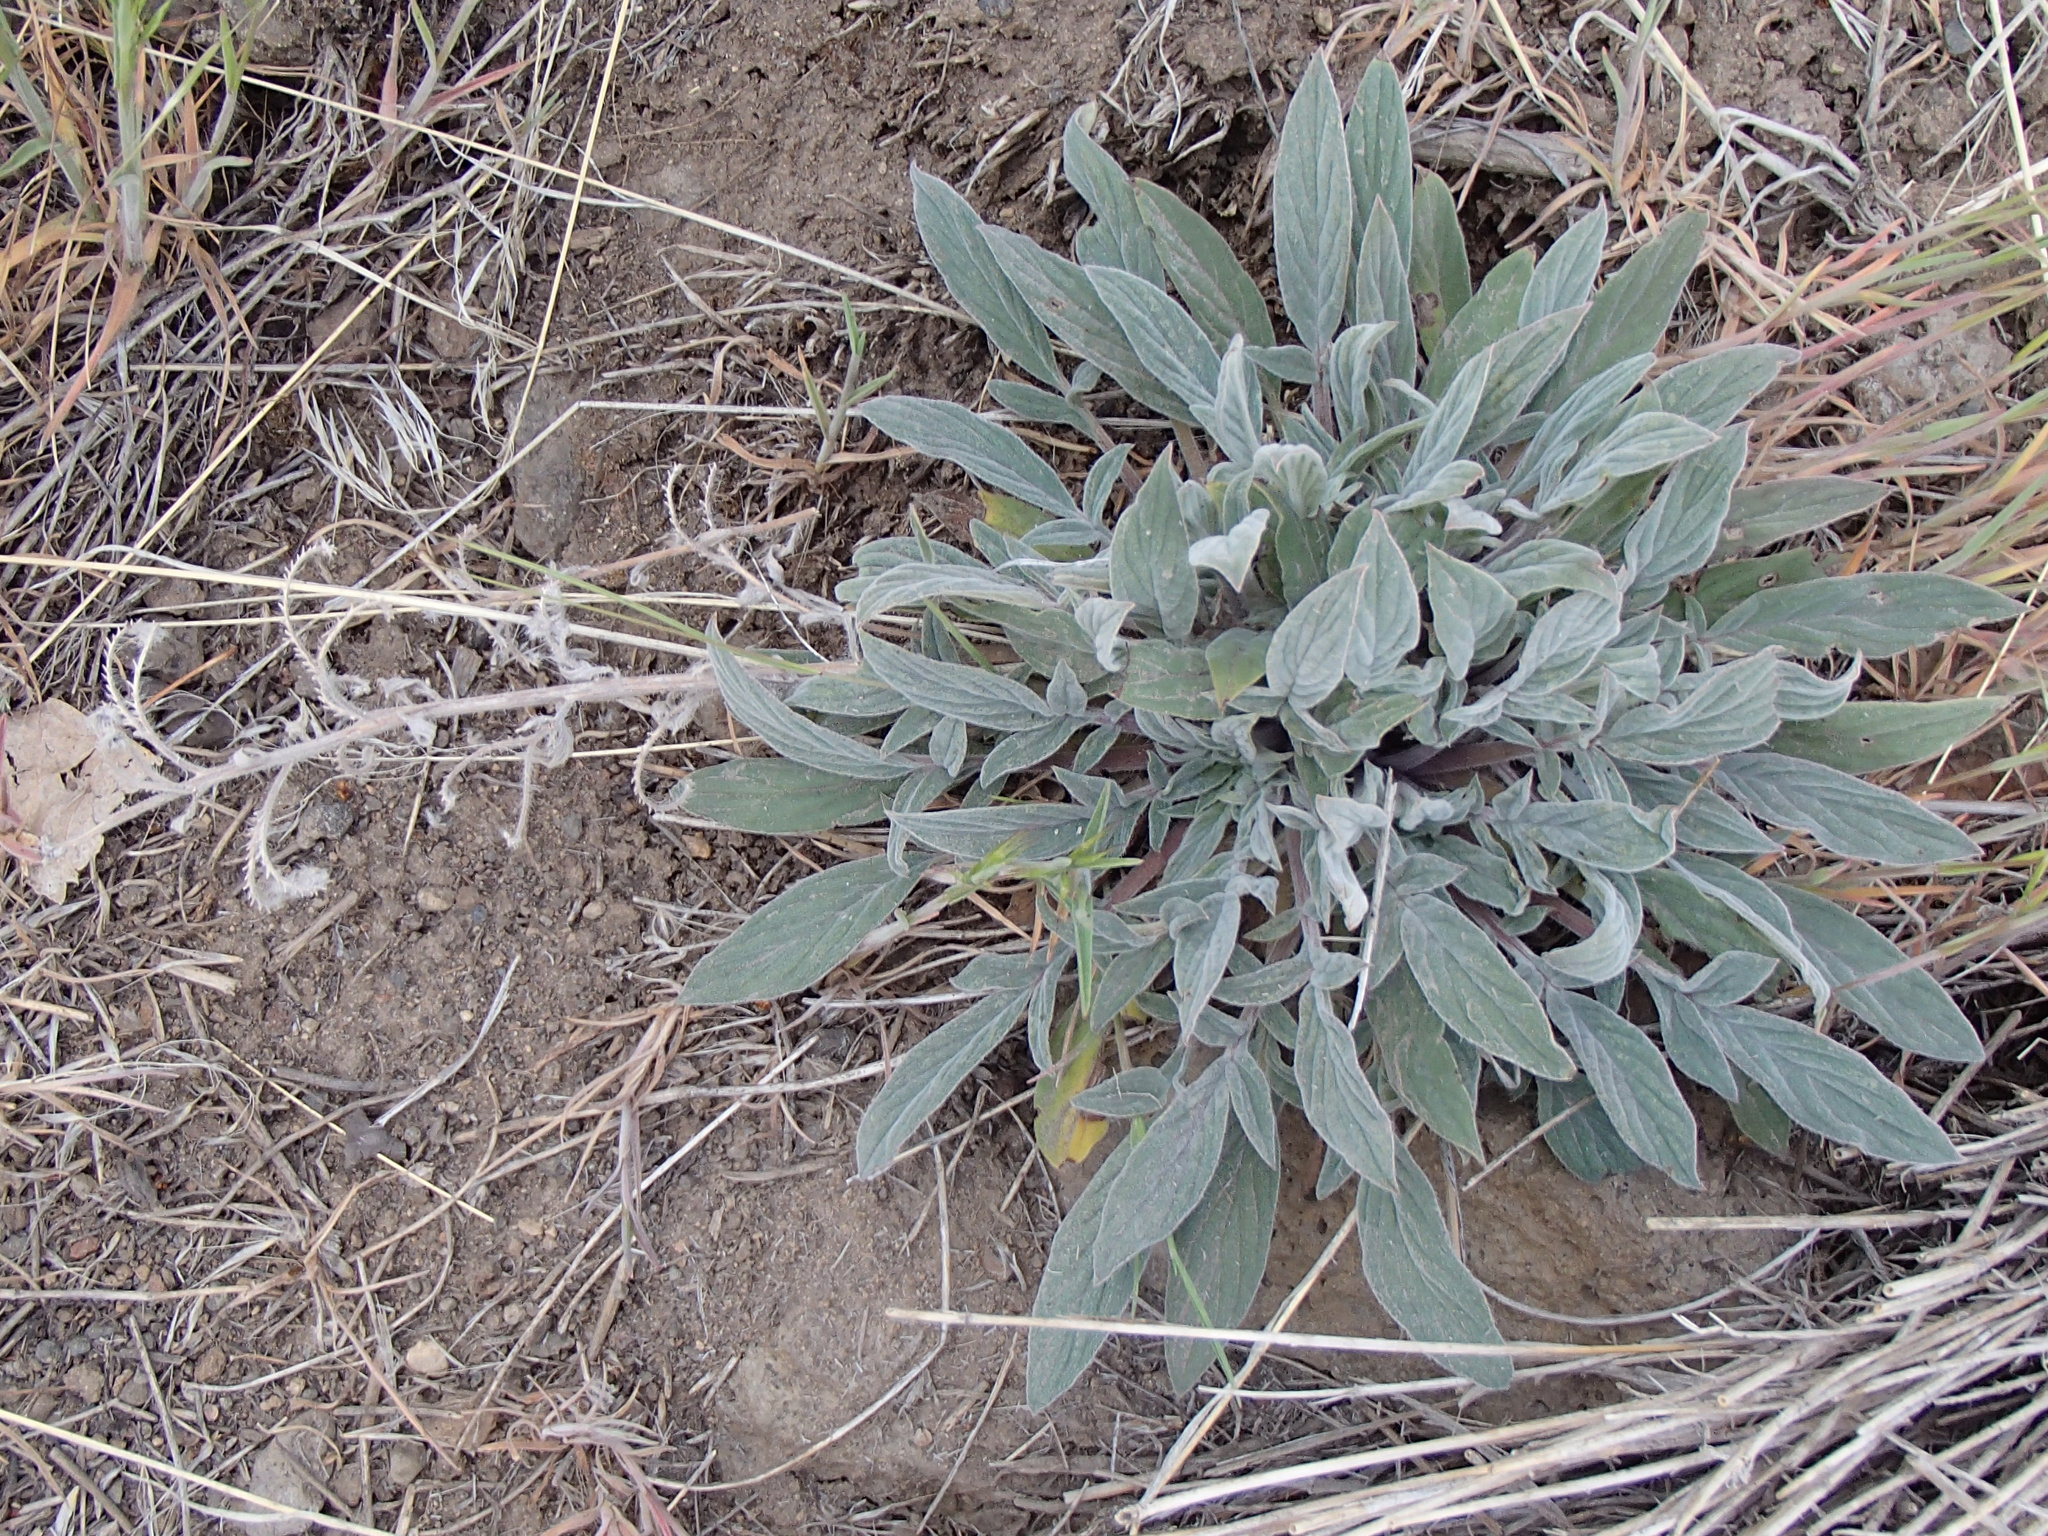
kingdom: Plantae
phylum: Tracheophyta
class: Magnoliopsida
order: Boraginales
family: Hydrophyllaceae
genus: Phacelia
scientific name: Phacelia hastata
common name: Silver-leaved phacelia
